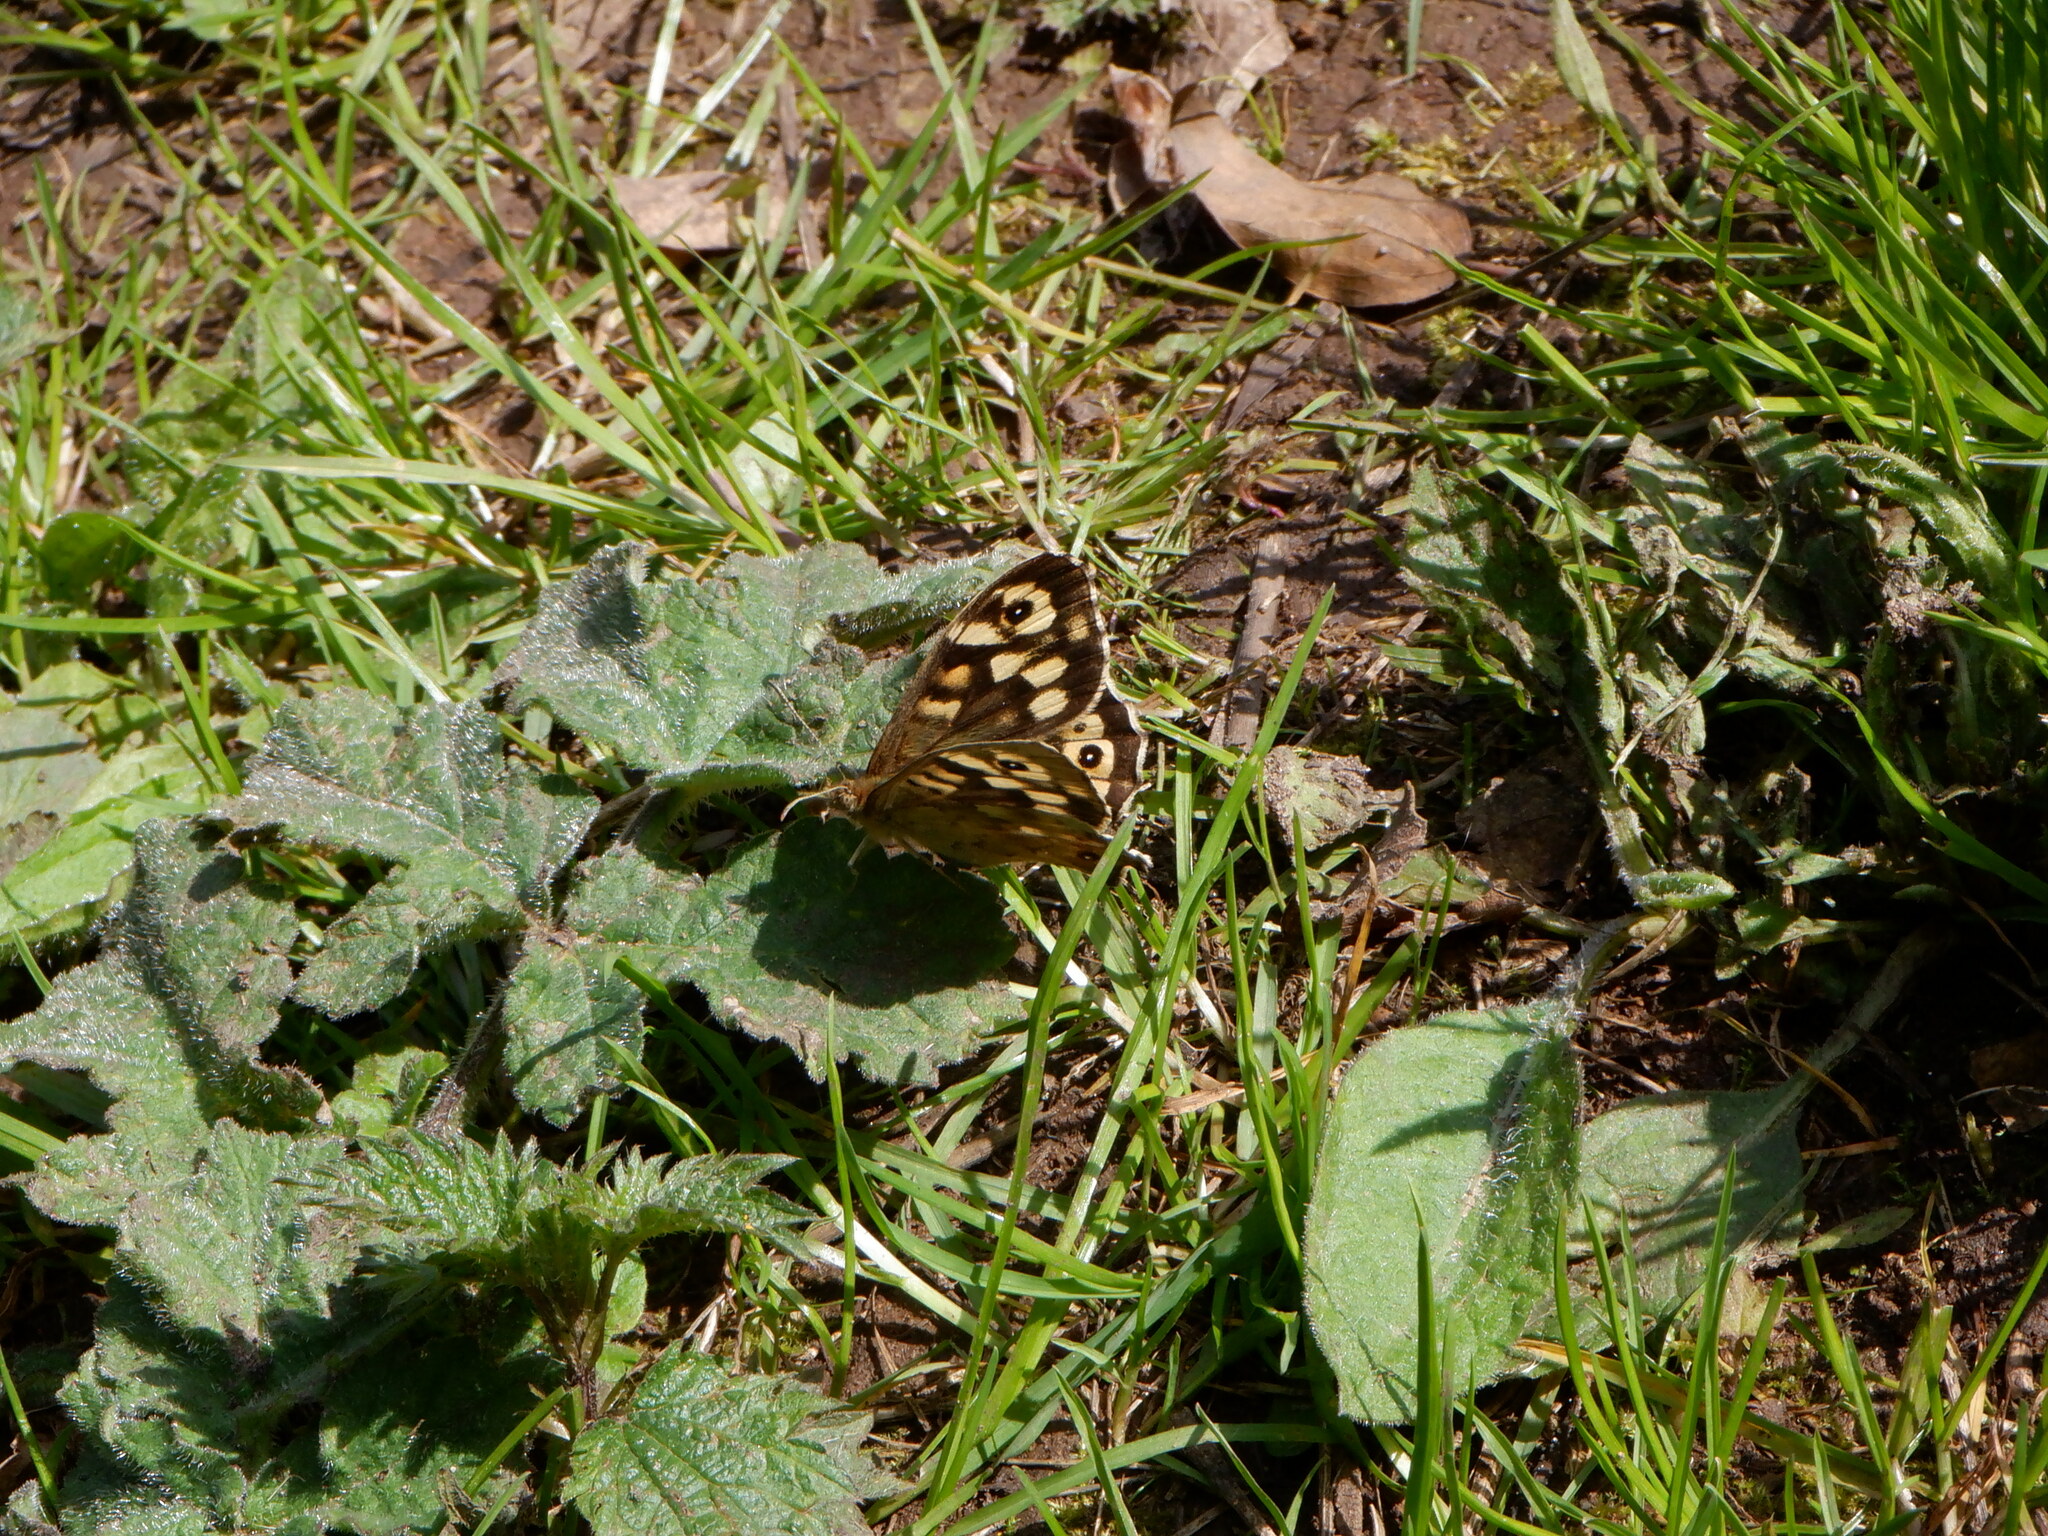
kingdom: Animalia
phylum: Arthropoda
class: Insecta
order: Lepidoptera
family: Nymphalidae
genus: Pararge
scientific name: Pararge aegeria
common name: Speckled wood
